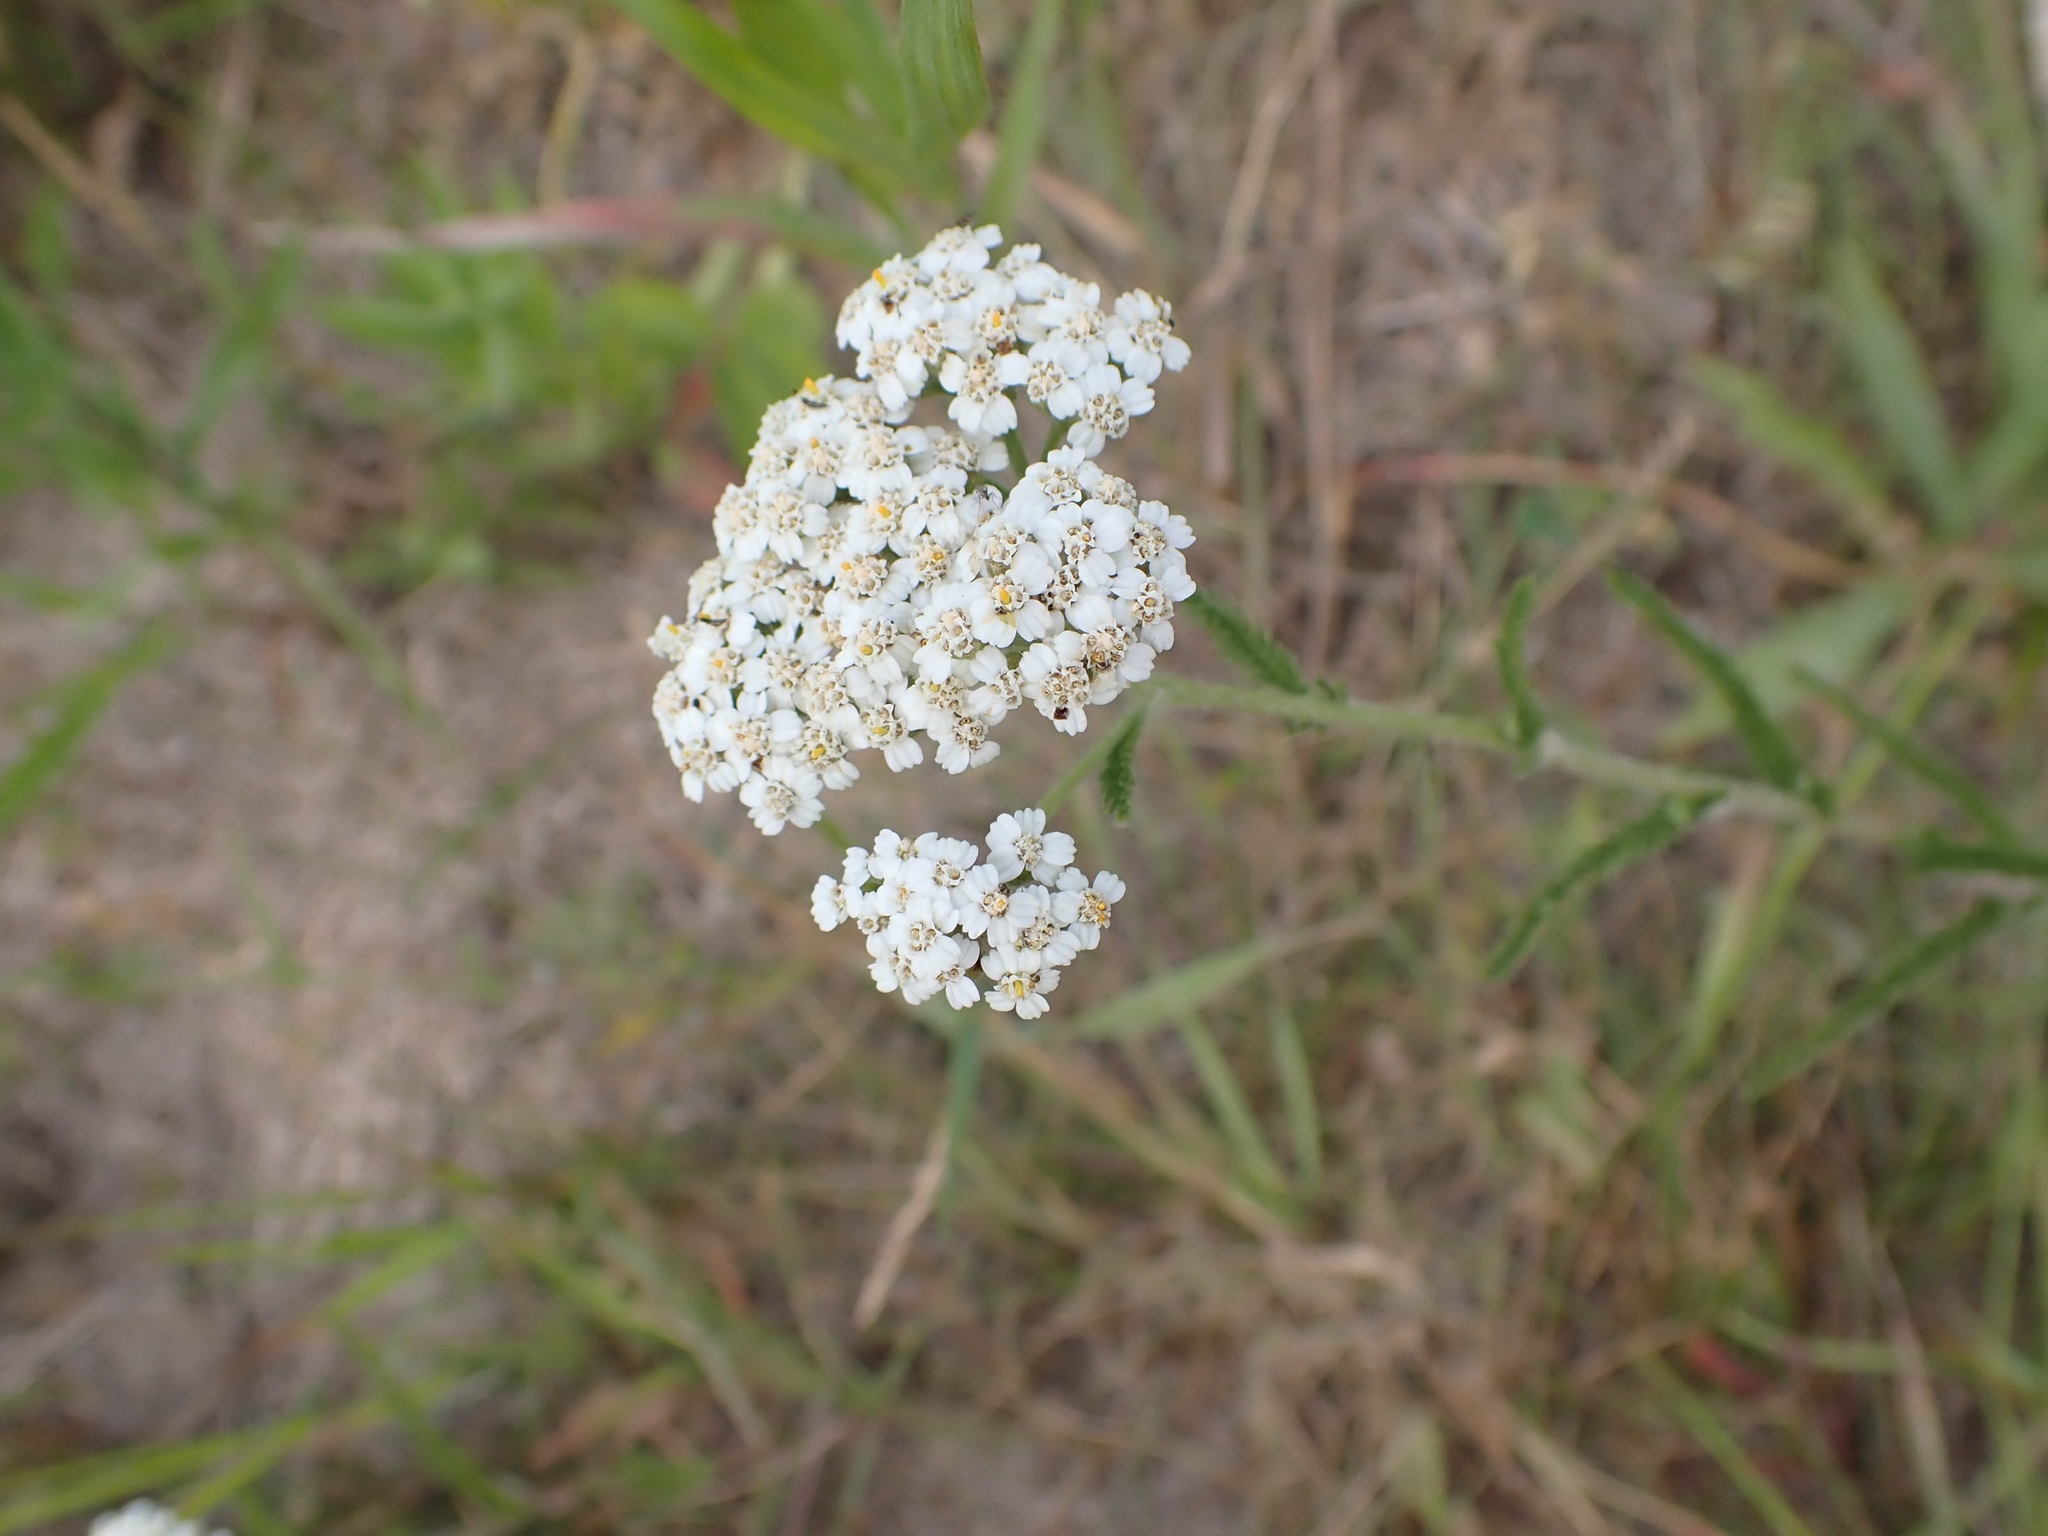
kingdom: Plantae
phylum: Tracheophyta
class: Magnoliopsida
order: Asterales
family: Asteraceae
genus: Achillea
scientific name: Achillea millefolium
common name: Yarrow
